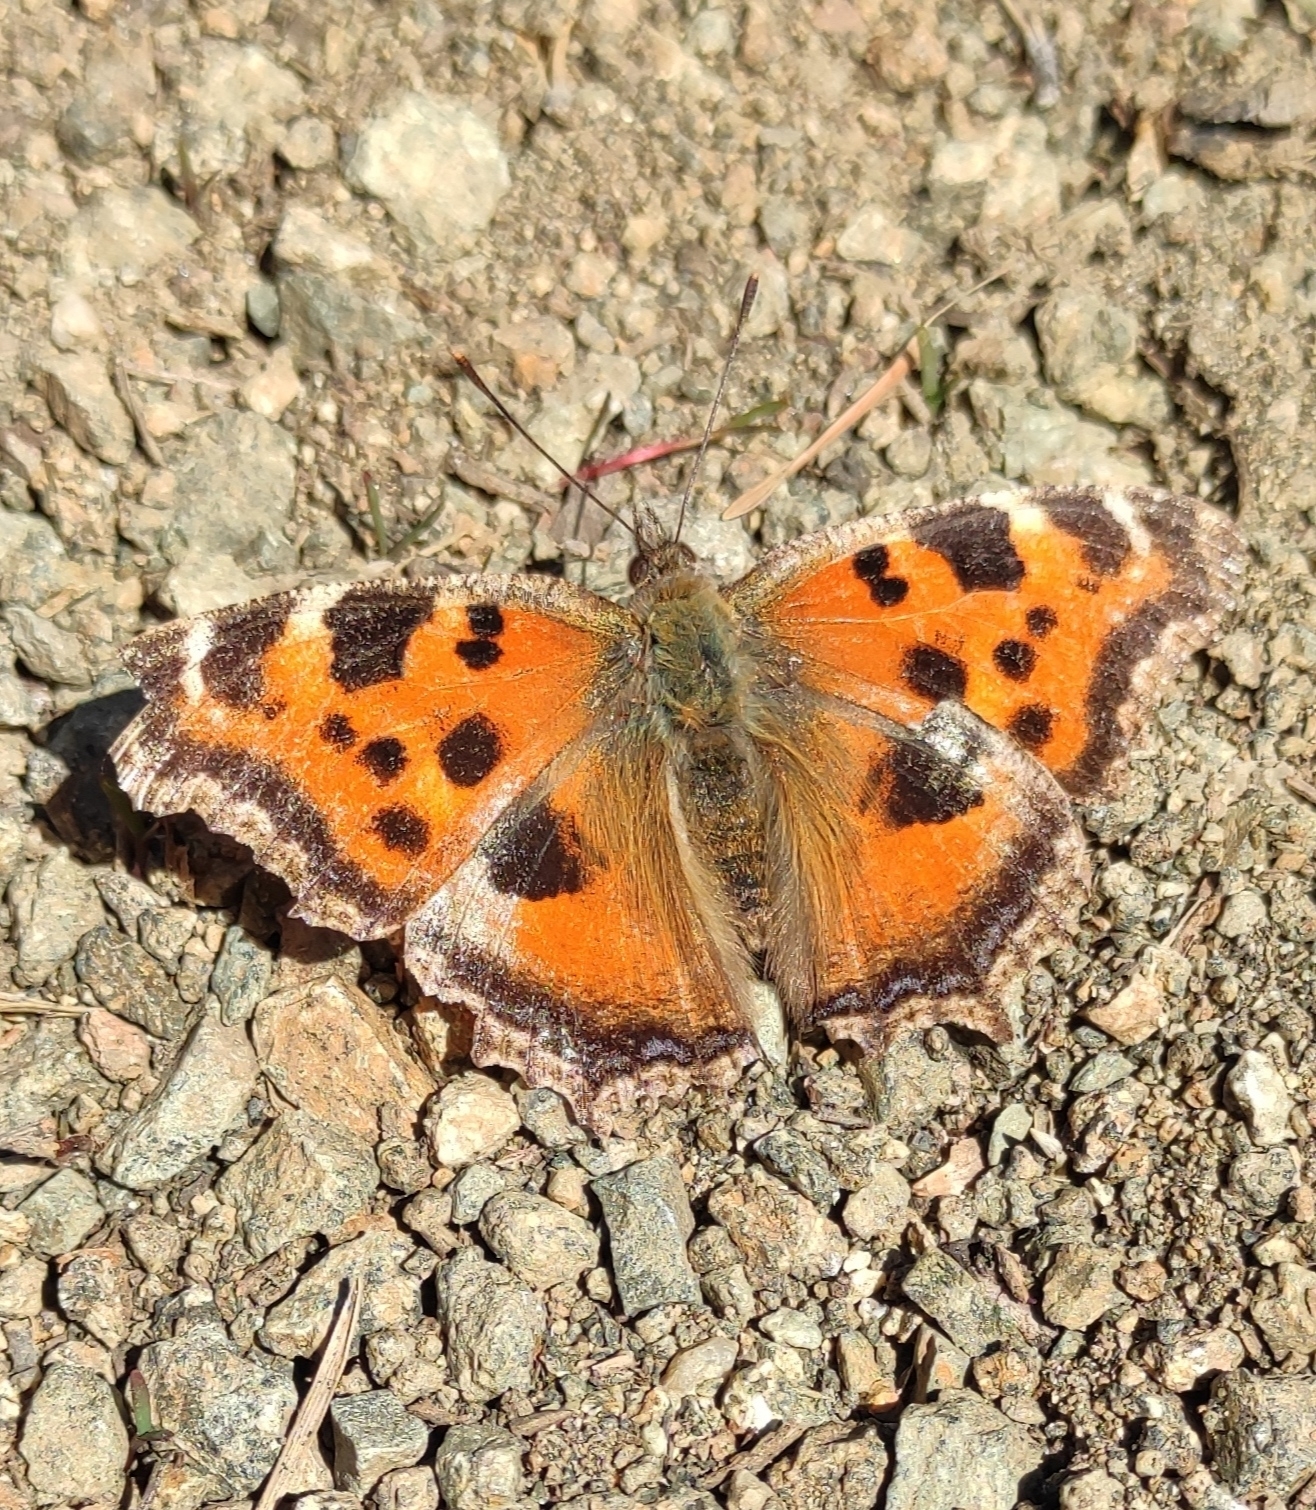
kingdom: Animalia
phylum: Arthropoda
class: Insecta
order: Lepidoptera
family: Nymphalidae
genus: Nymphalis
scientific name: Nymphalis xanthomelas
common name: Scarce tortoiseshell
